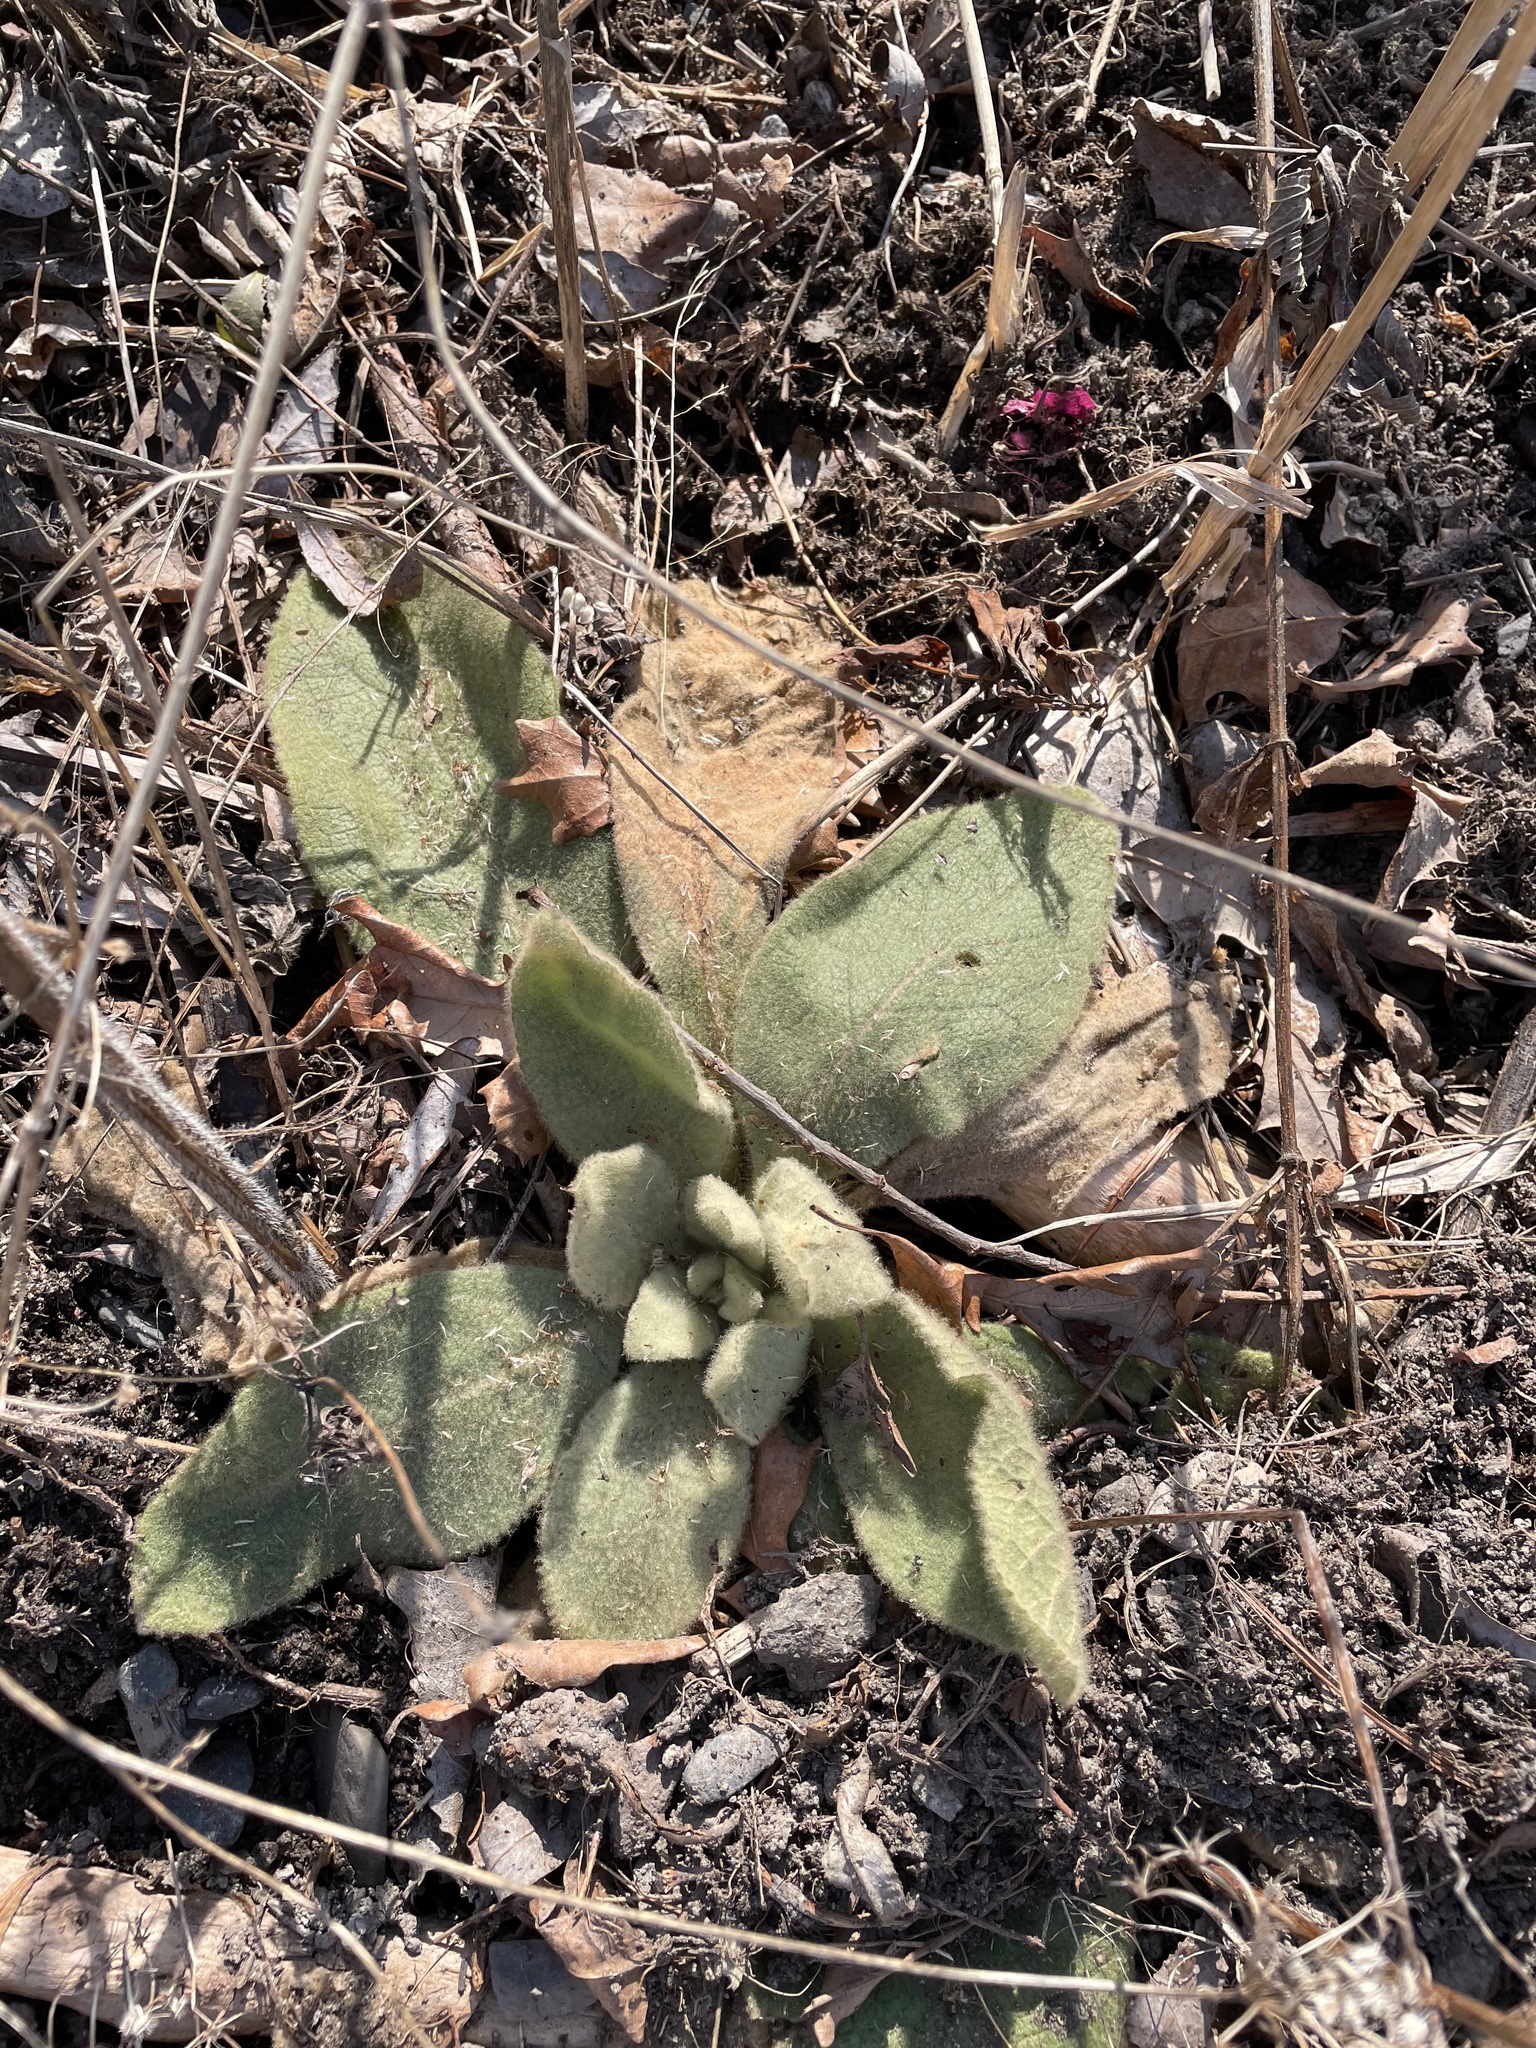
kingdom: Plantae
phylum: Tracheophyta
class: Magnoliopsida
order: Lamiales
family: Scrophulariaceae
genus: Verbascum
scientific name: Verbascum thapsus
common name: Common mullein
